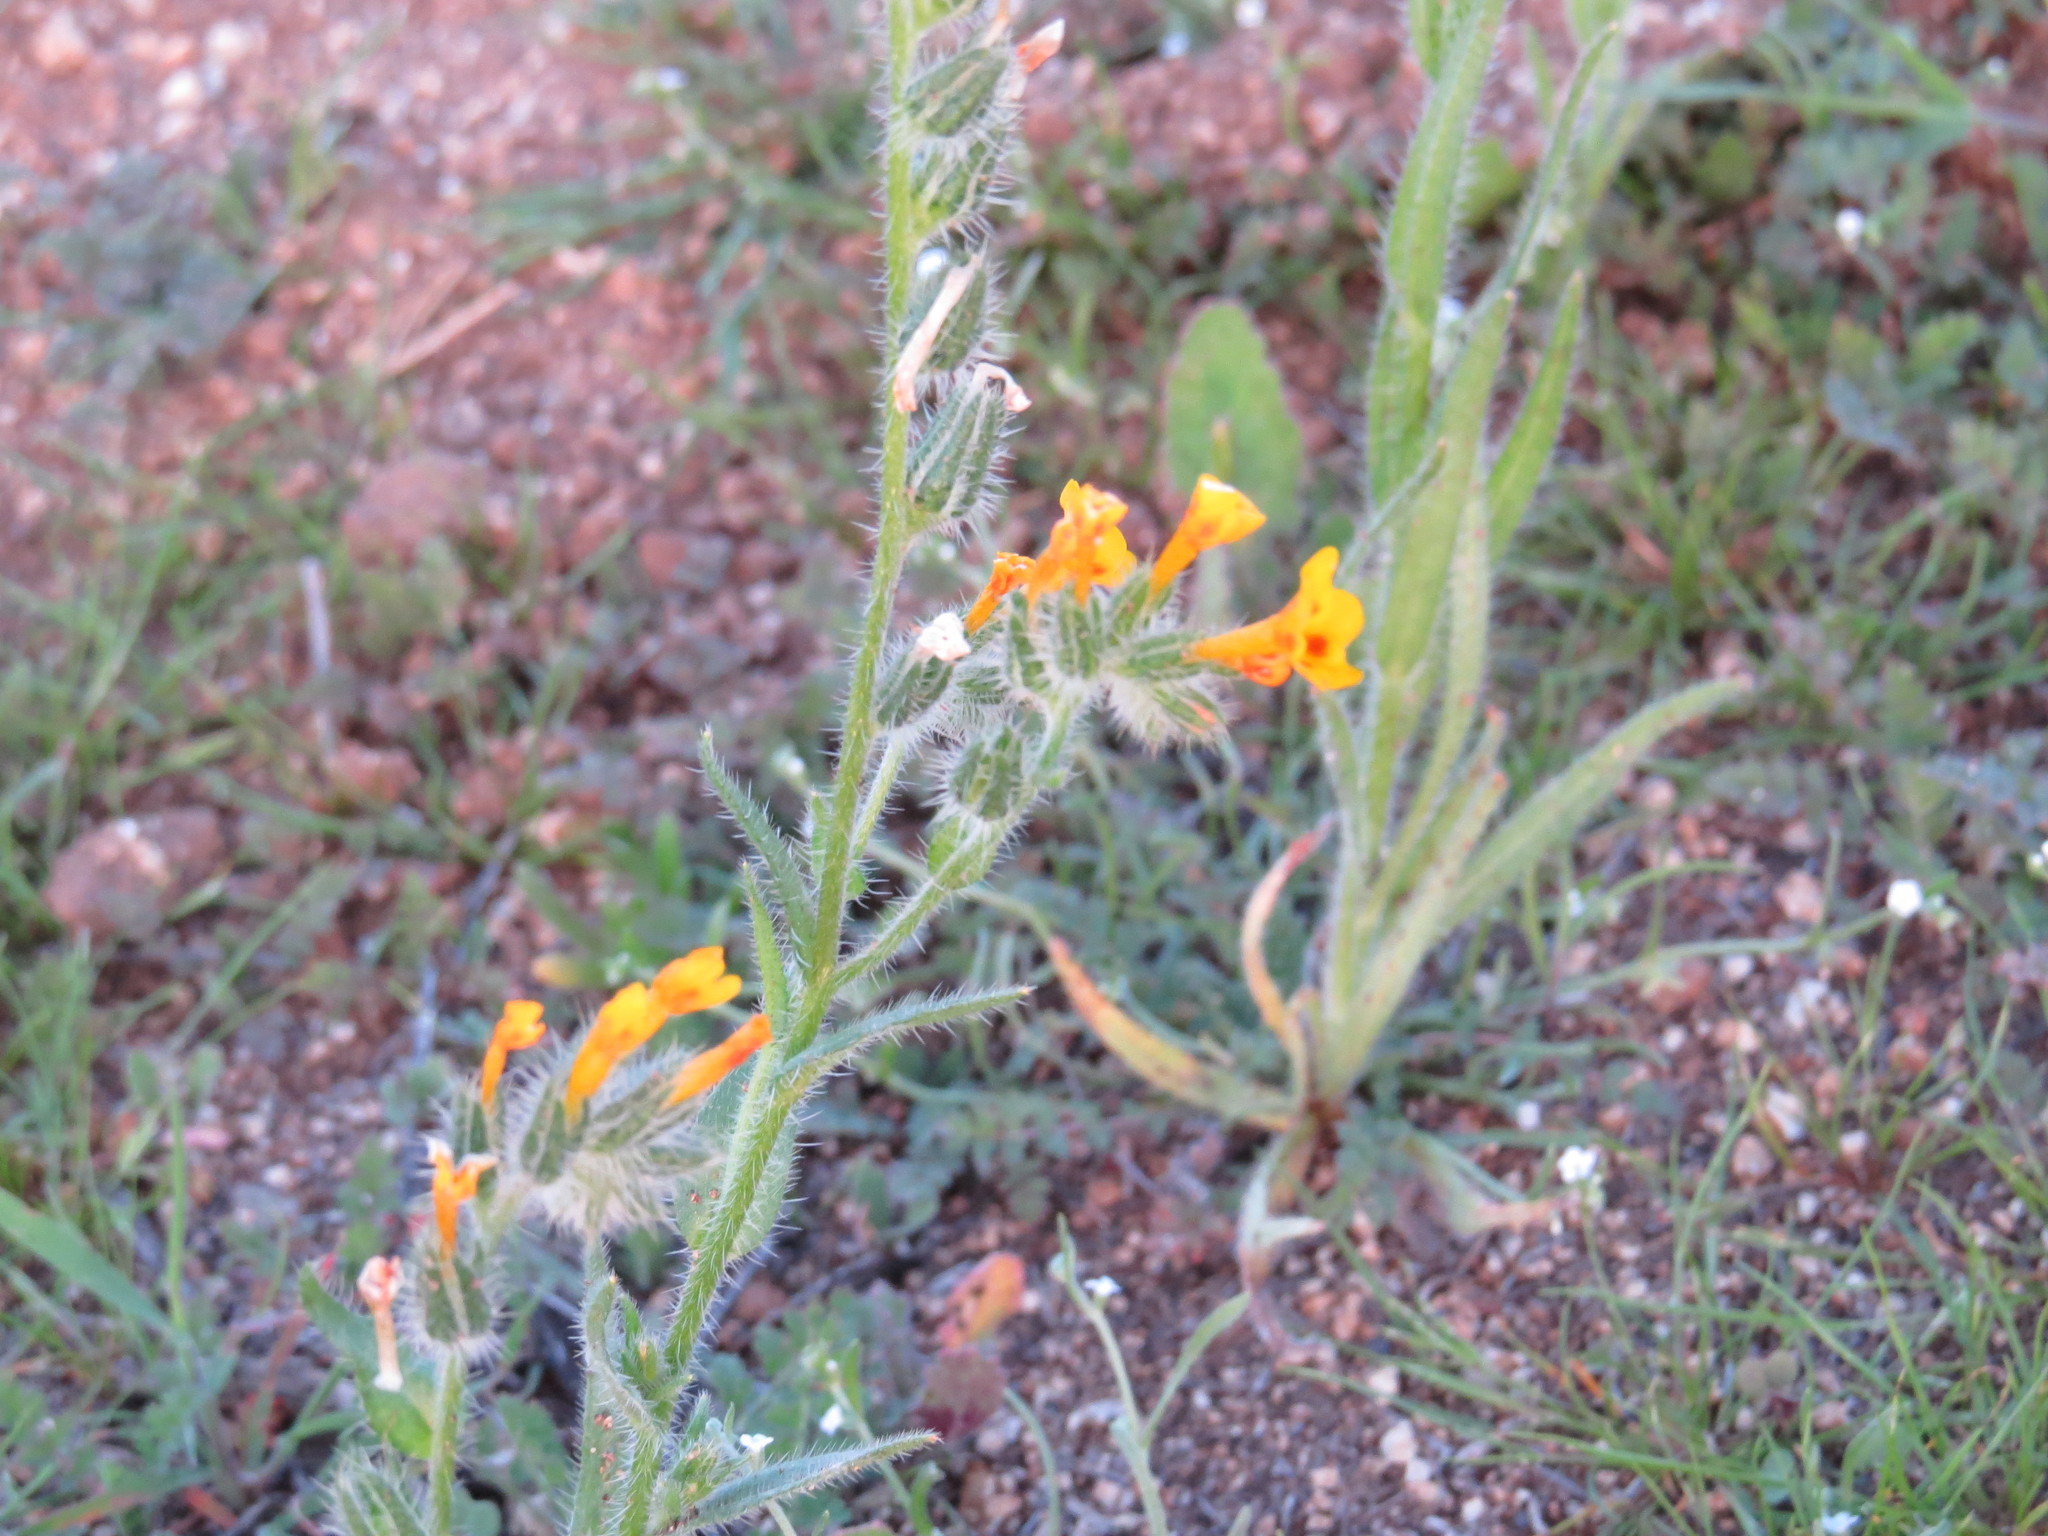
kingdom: Plantae
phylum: Tracheophyta
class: Magnoliopsida
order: Boraginales
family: Boraginaceae
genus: Amsinckia
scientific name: Amsinckia menziesii
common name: Menzies' fiddleneck
